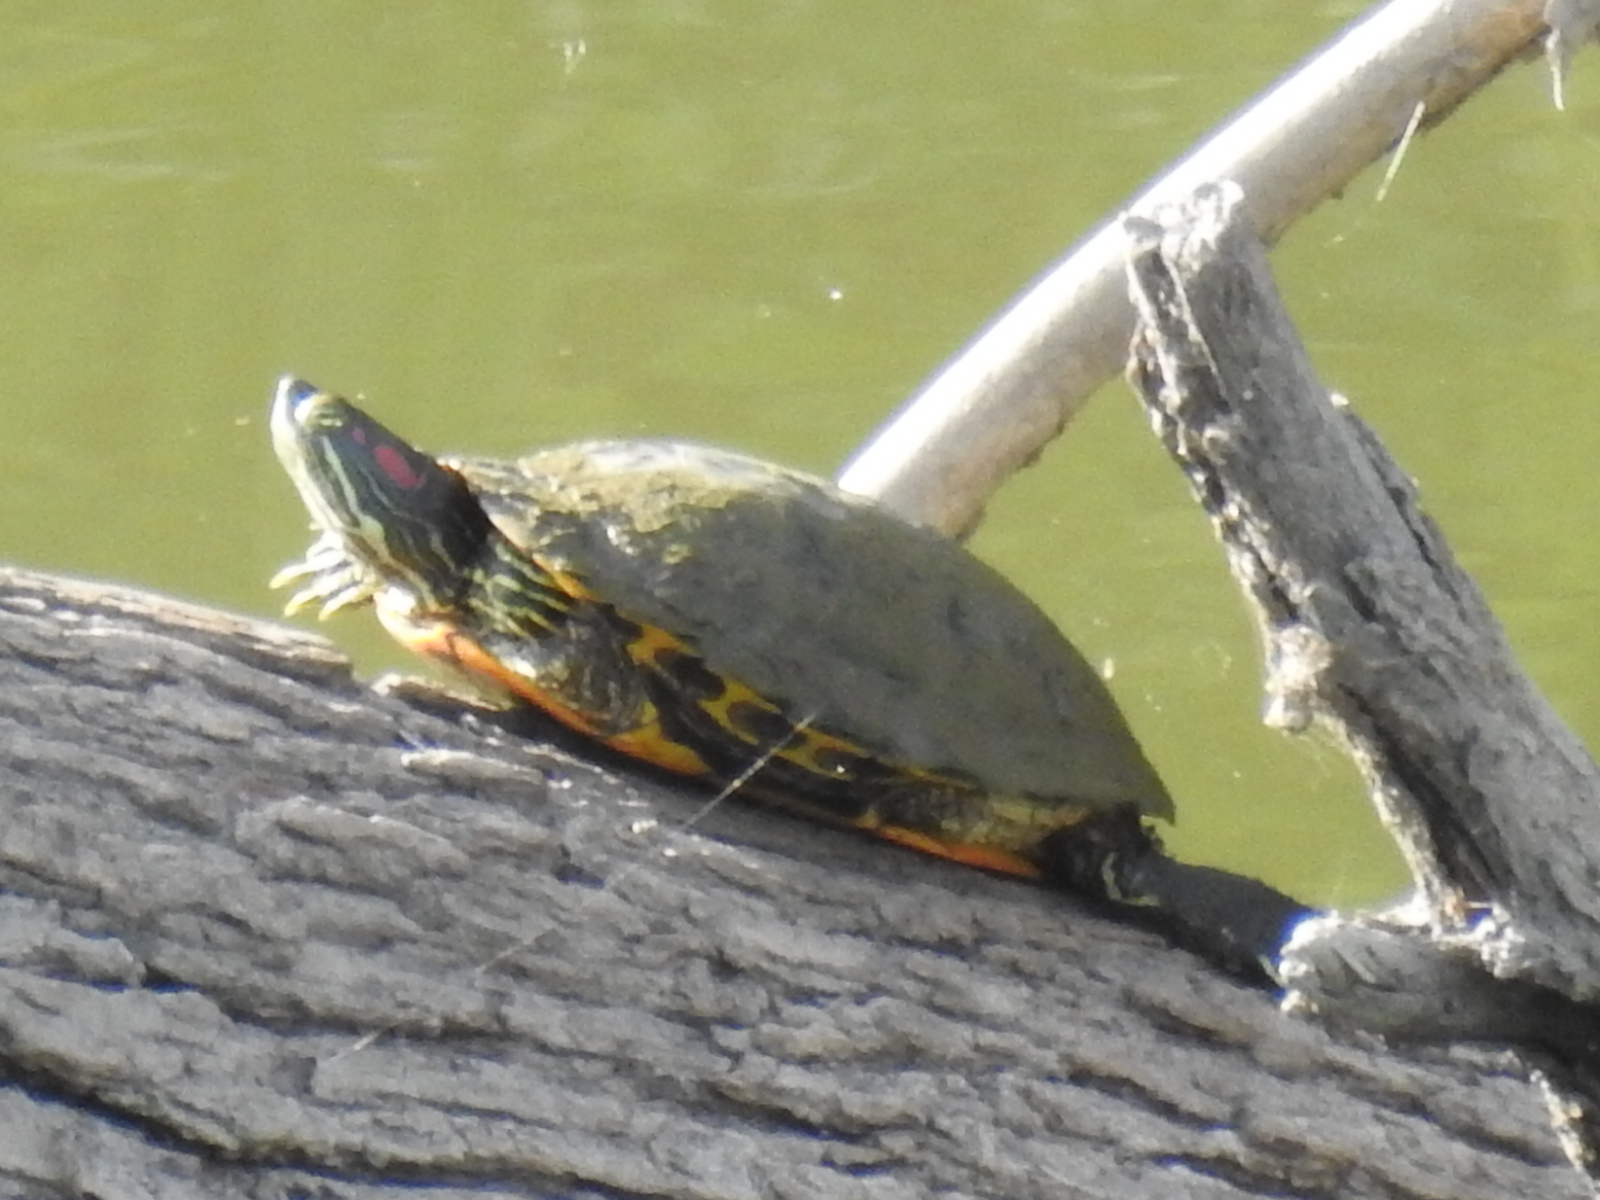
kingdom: Animalia
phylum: Chordata
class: Testudines
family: Emydidae
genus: Trachemys
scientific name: Trachemys scripta
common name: Slider
